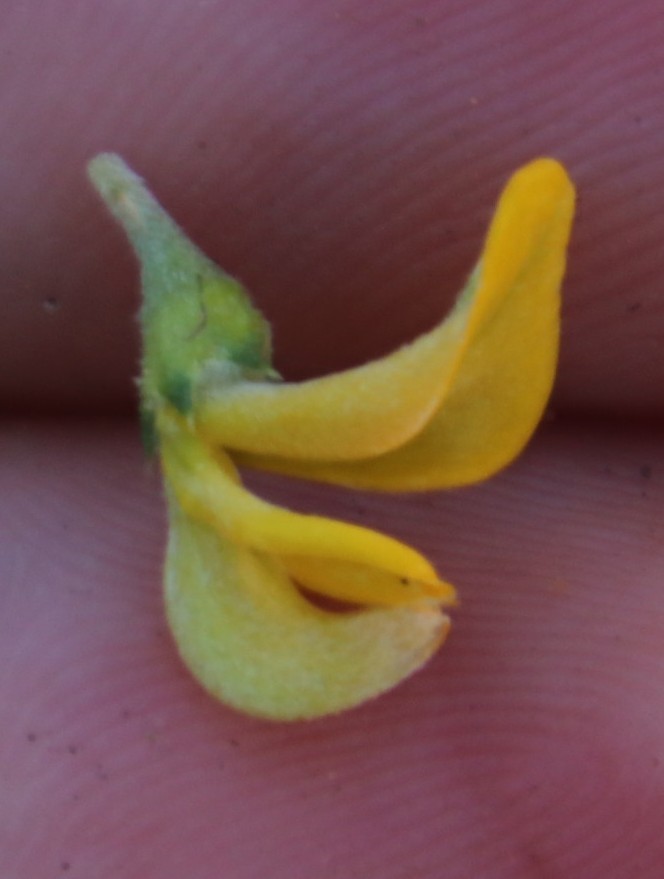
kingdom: Plantae
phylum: Tracheophyta
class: Magnoliopsida
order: Fabales
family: Fabaceae
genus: Aspalathus
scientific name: Aspalathus secunda
